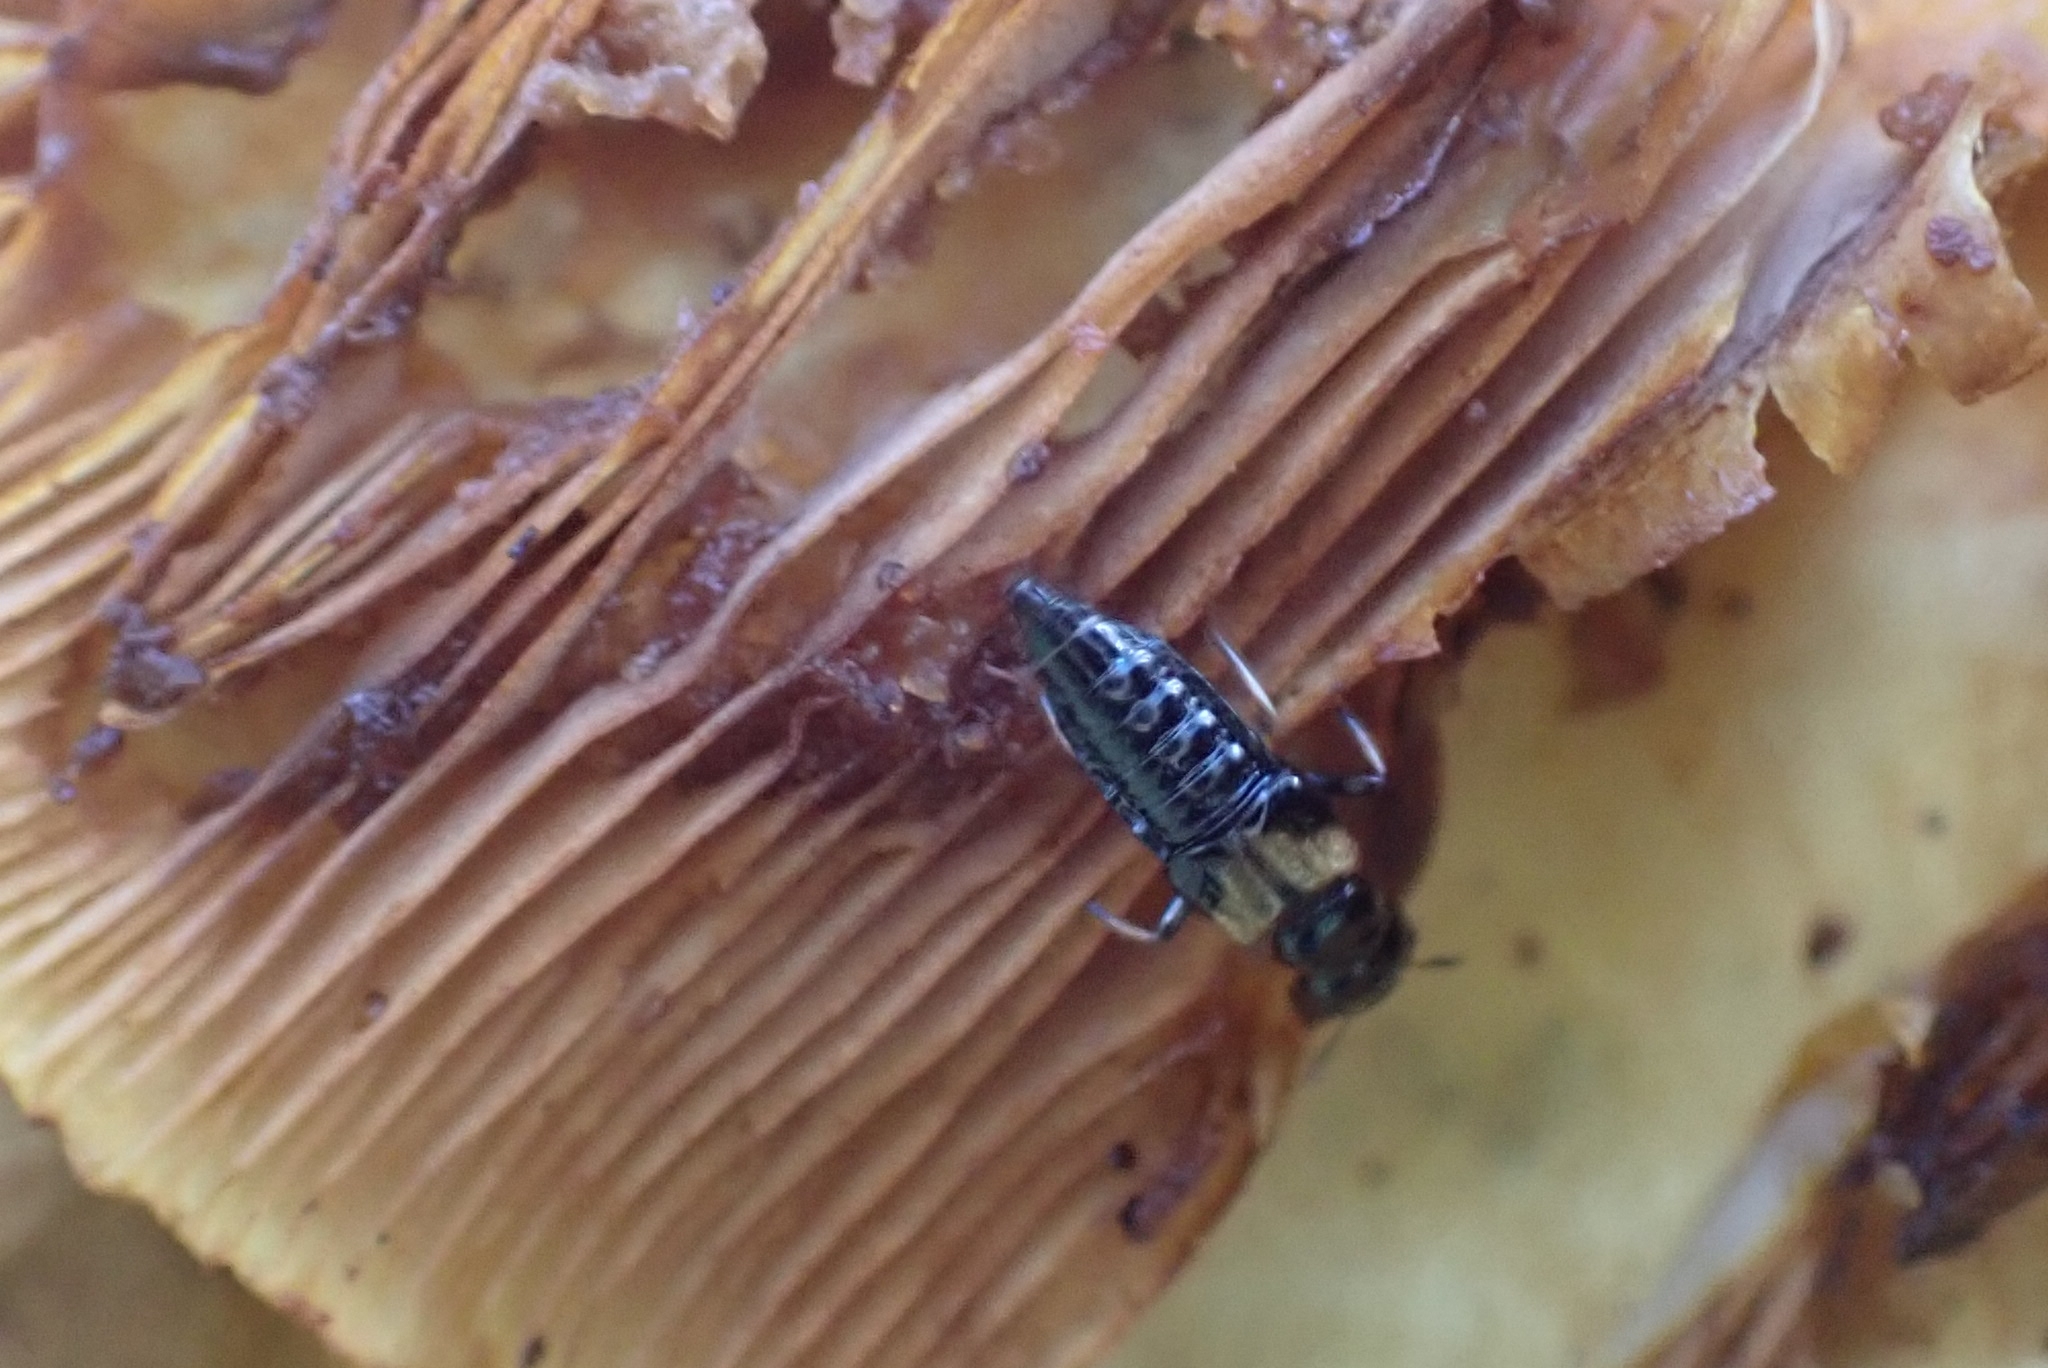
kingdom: Animalia
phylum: Arthropoda
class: Insecta
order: Coleoptera
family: Staphylinidae
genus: Oxyporus
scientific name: Oxyporus maxillosus
